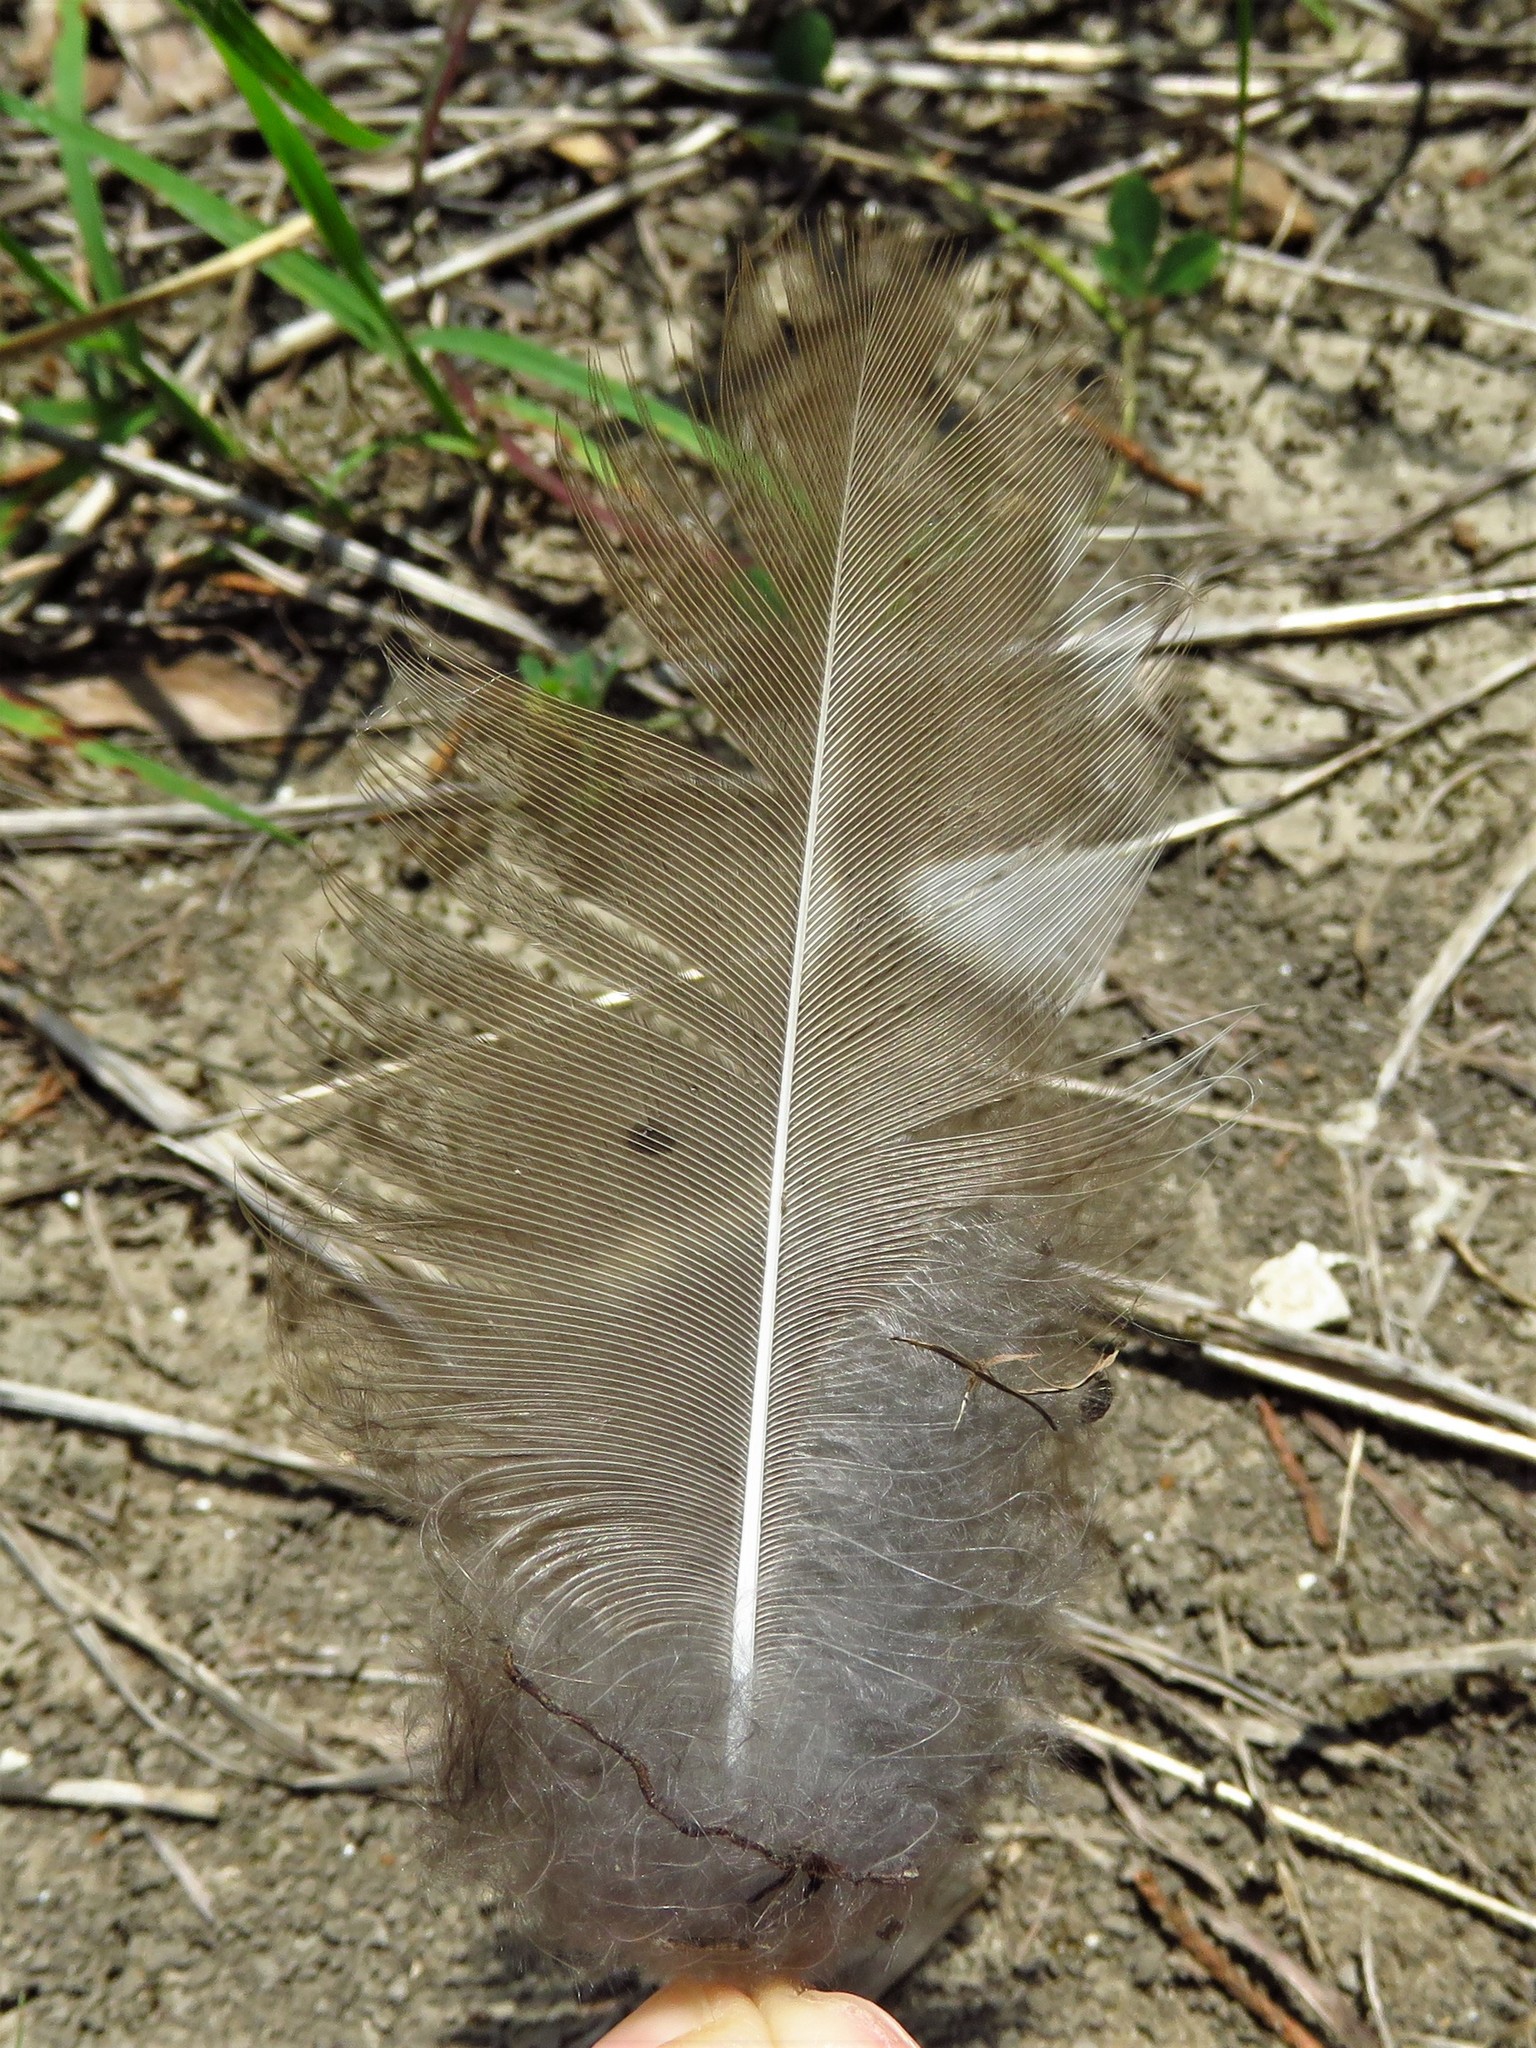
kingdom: Animalia
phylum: Chordata
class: Aves
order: Strigiformes
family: Strigidae
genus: Strix
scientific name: Strix varia
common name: Barred owl
